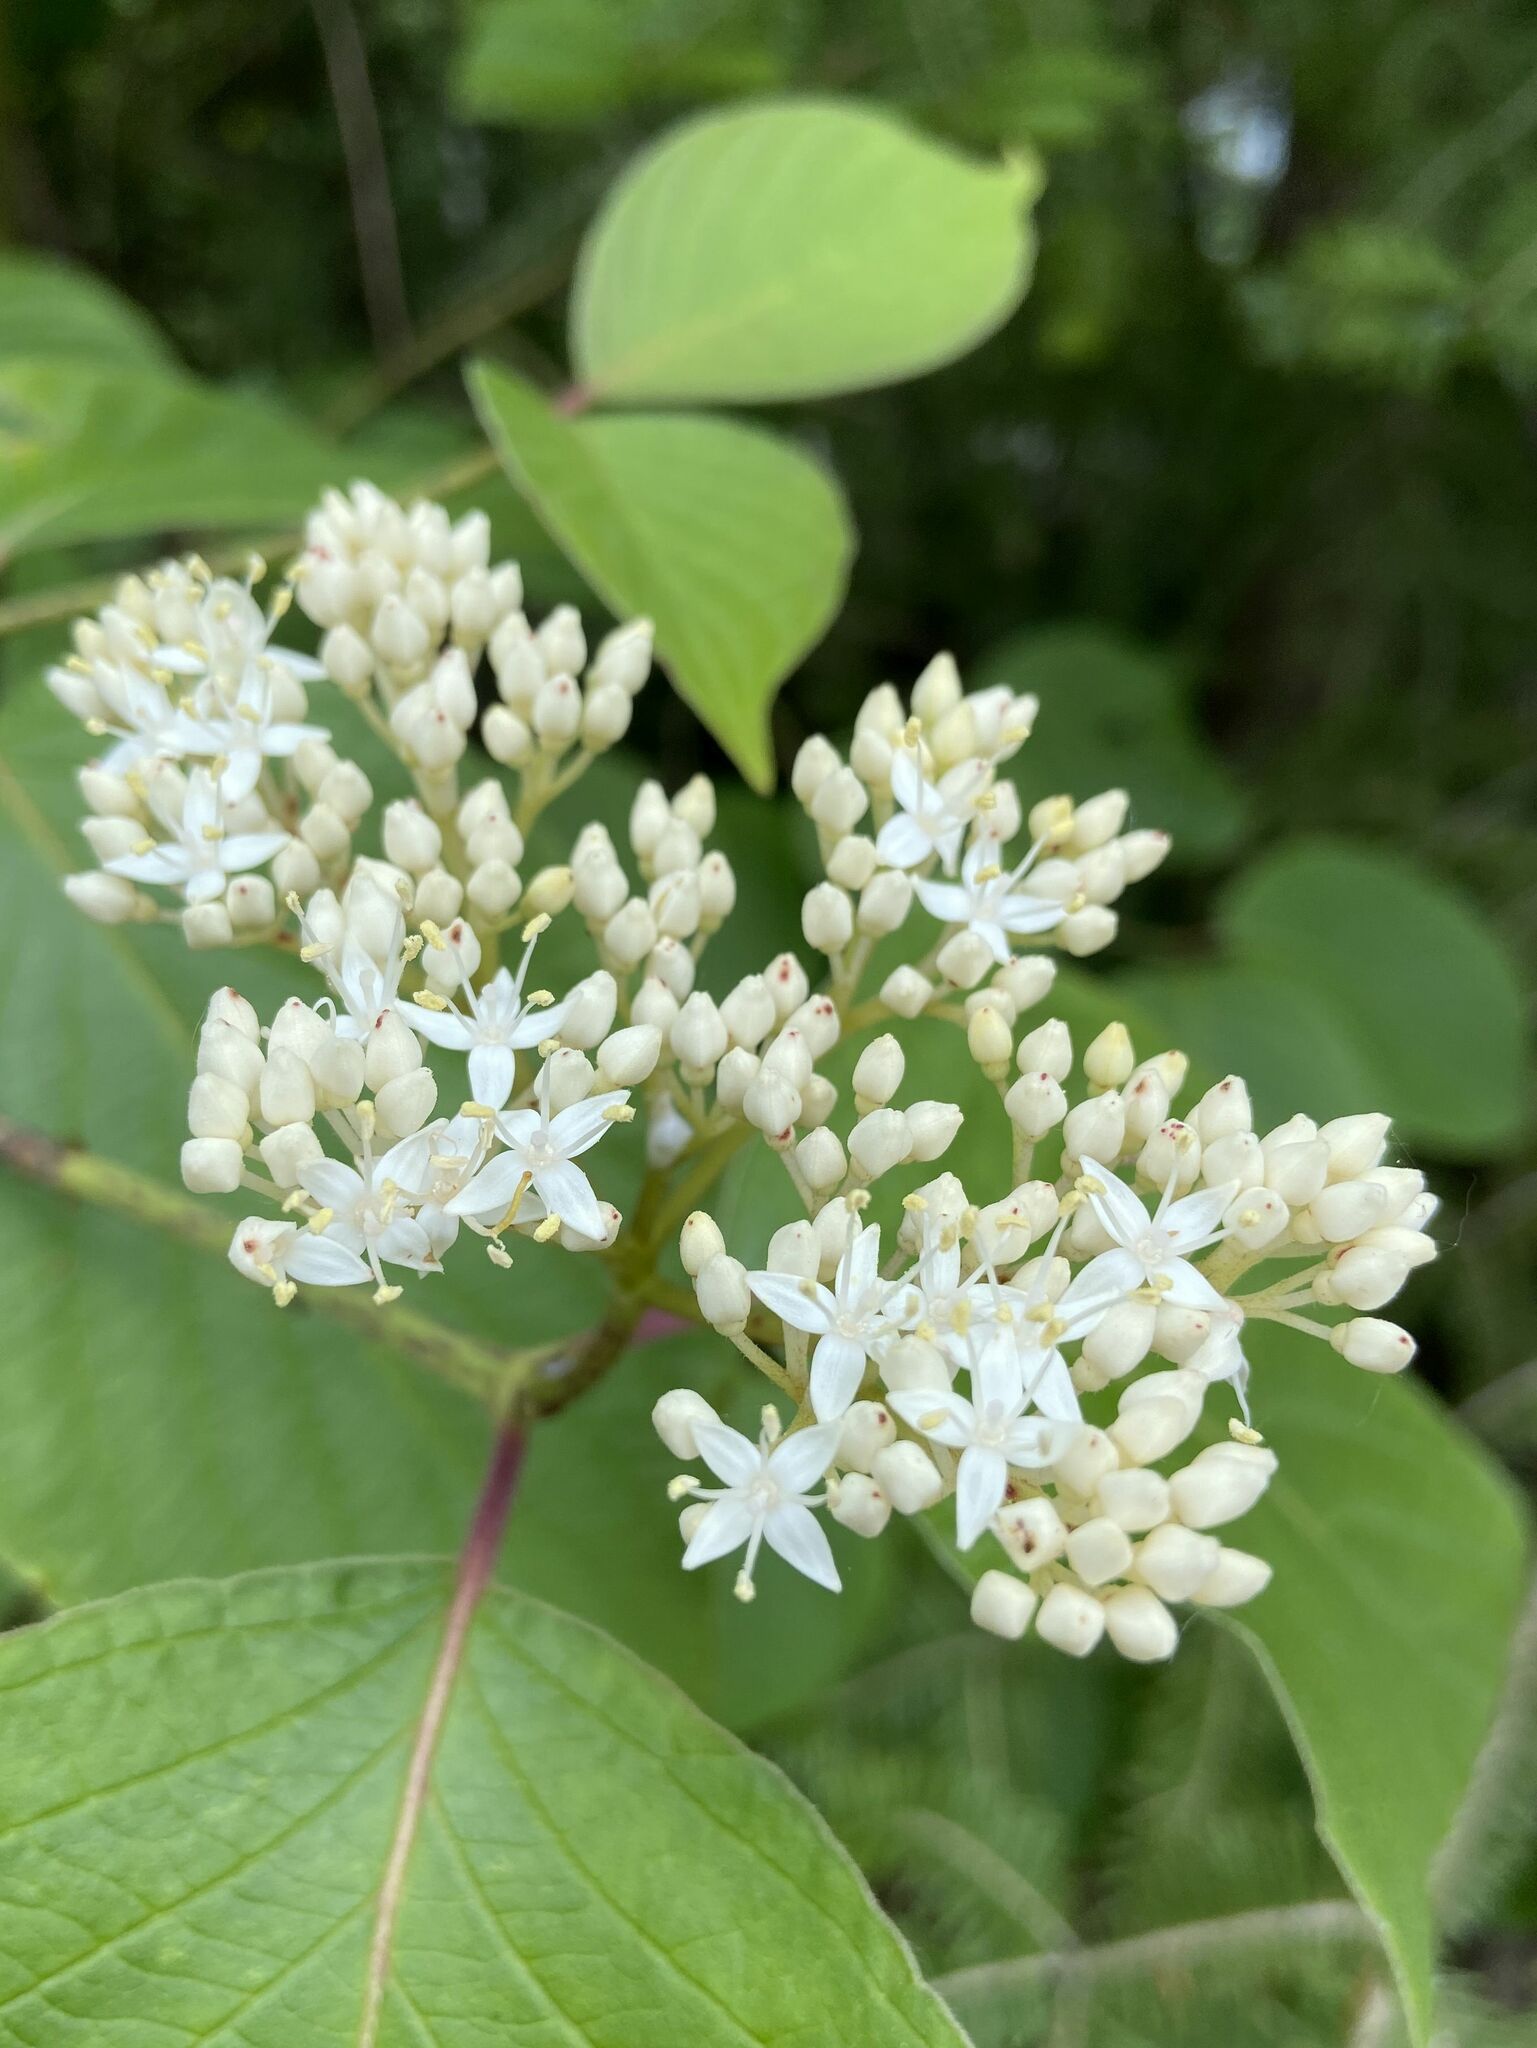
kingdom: Plantae
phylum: Tracheophyta
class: Magnoliopsida
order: Cornales
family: Cornaceae
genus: Cornus
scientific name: Cornus rugosa
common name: Round-leaf dogwood
